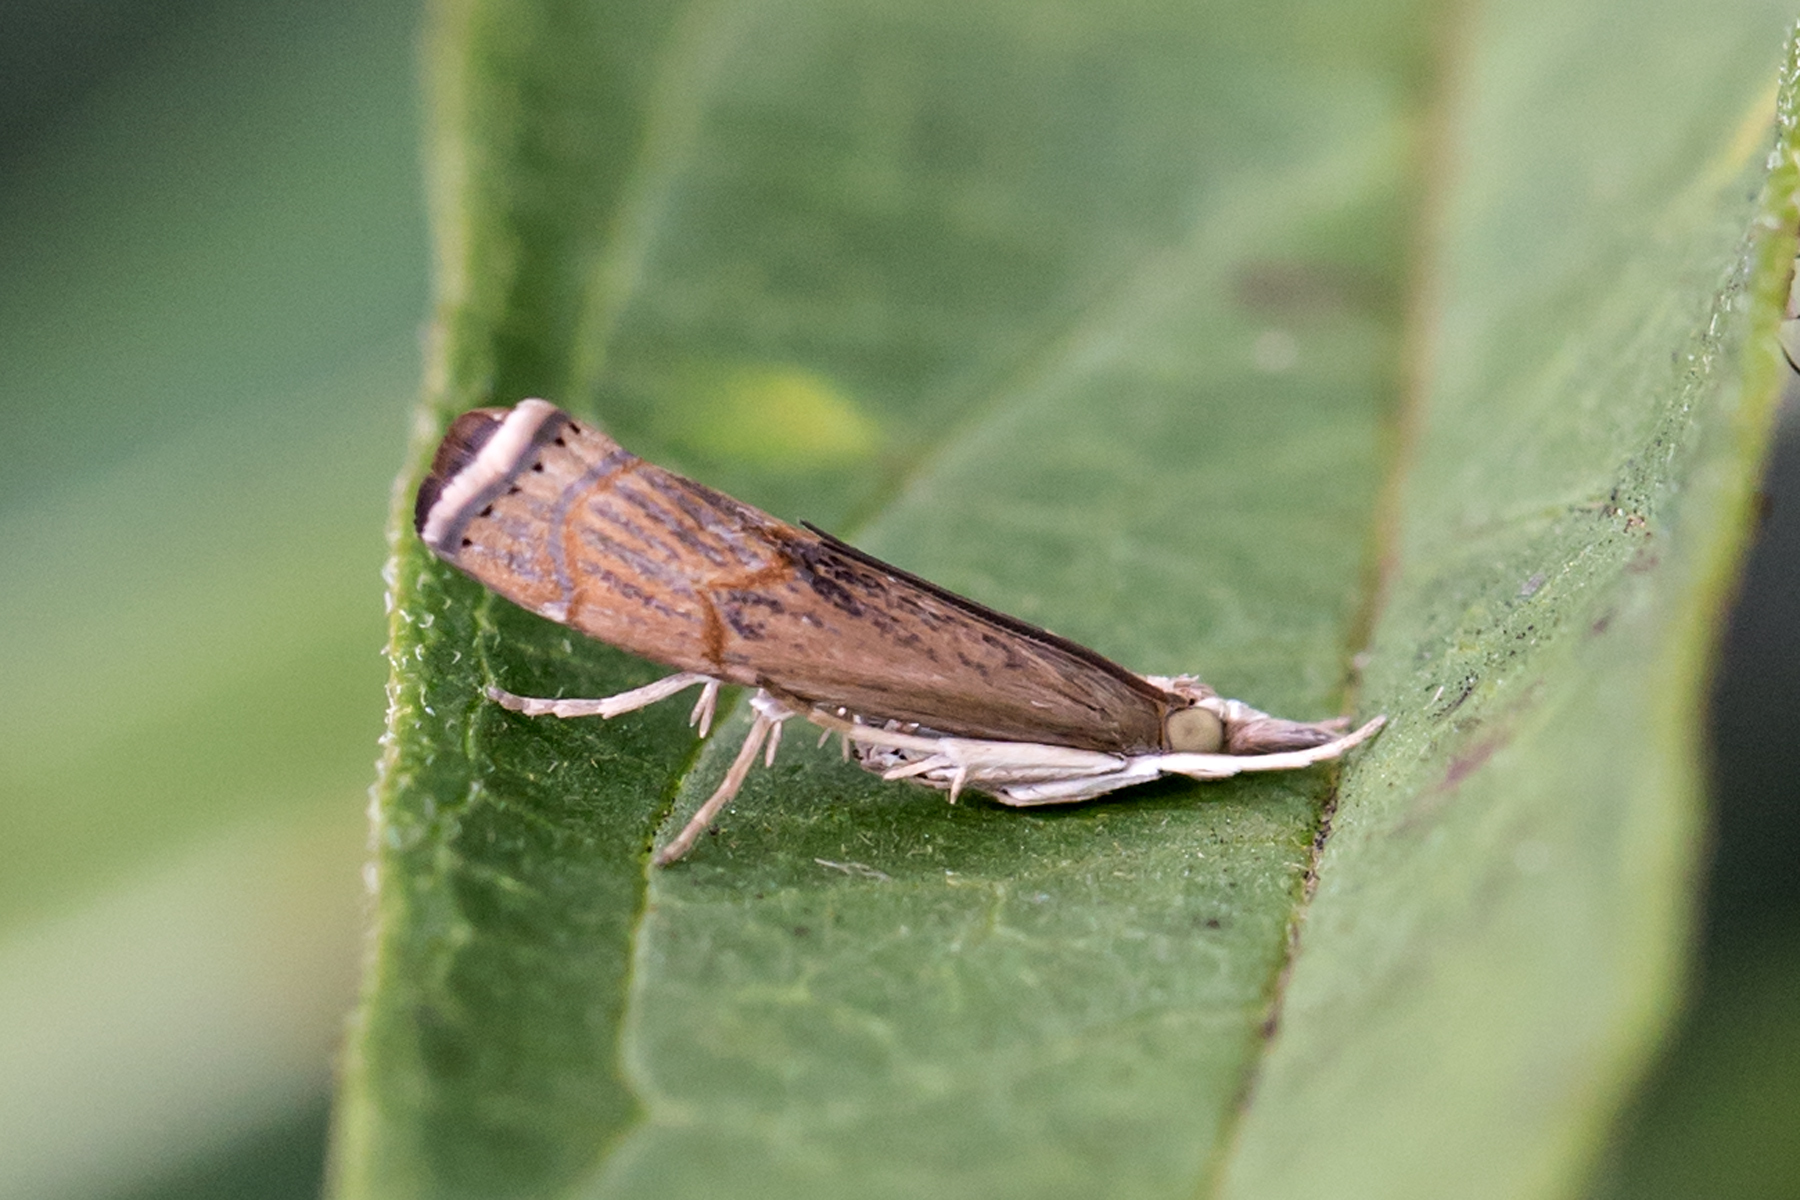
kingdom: Animalia
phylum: Arthropoda
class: Insecta
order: Lepidoptera
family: Crambidae
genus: Parapediasia
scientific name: Parapediasia teterellus
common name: Bluegrass webworm moth
